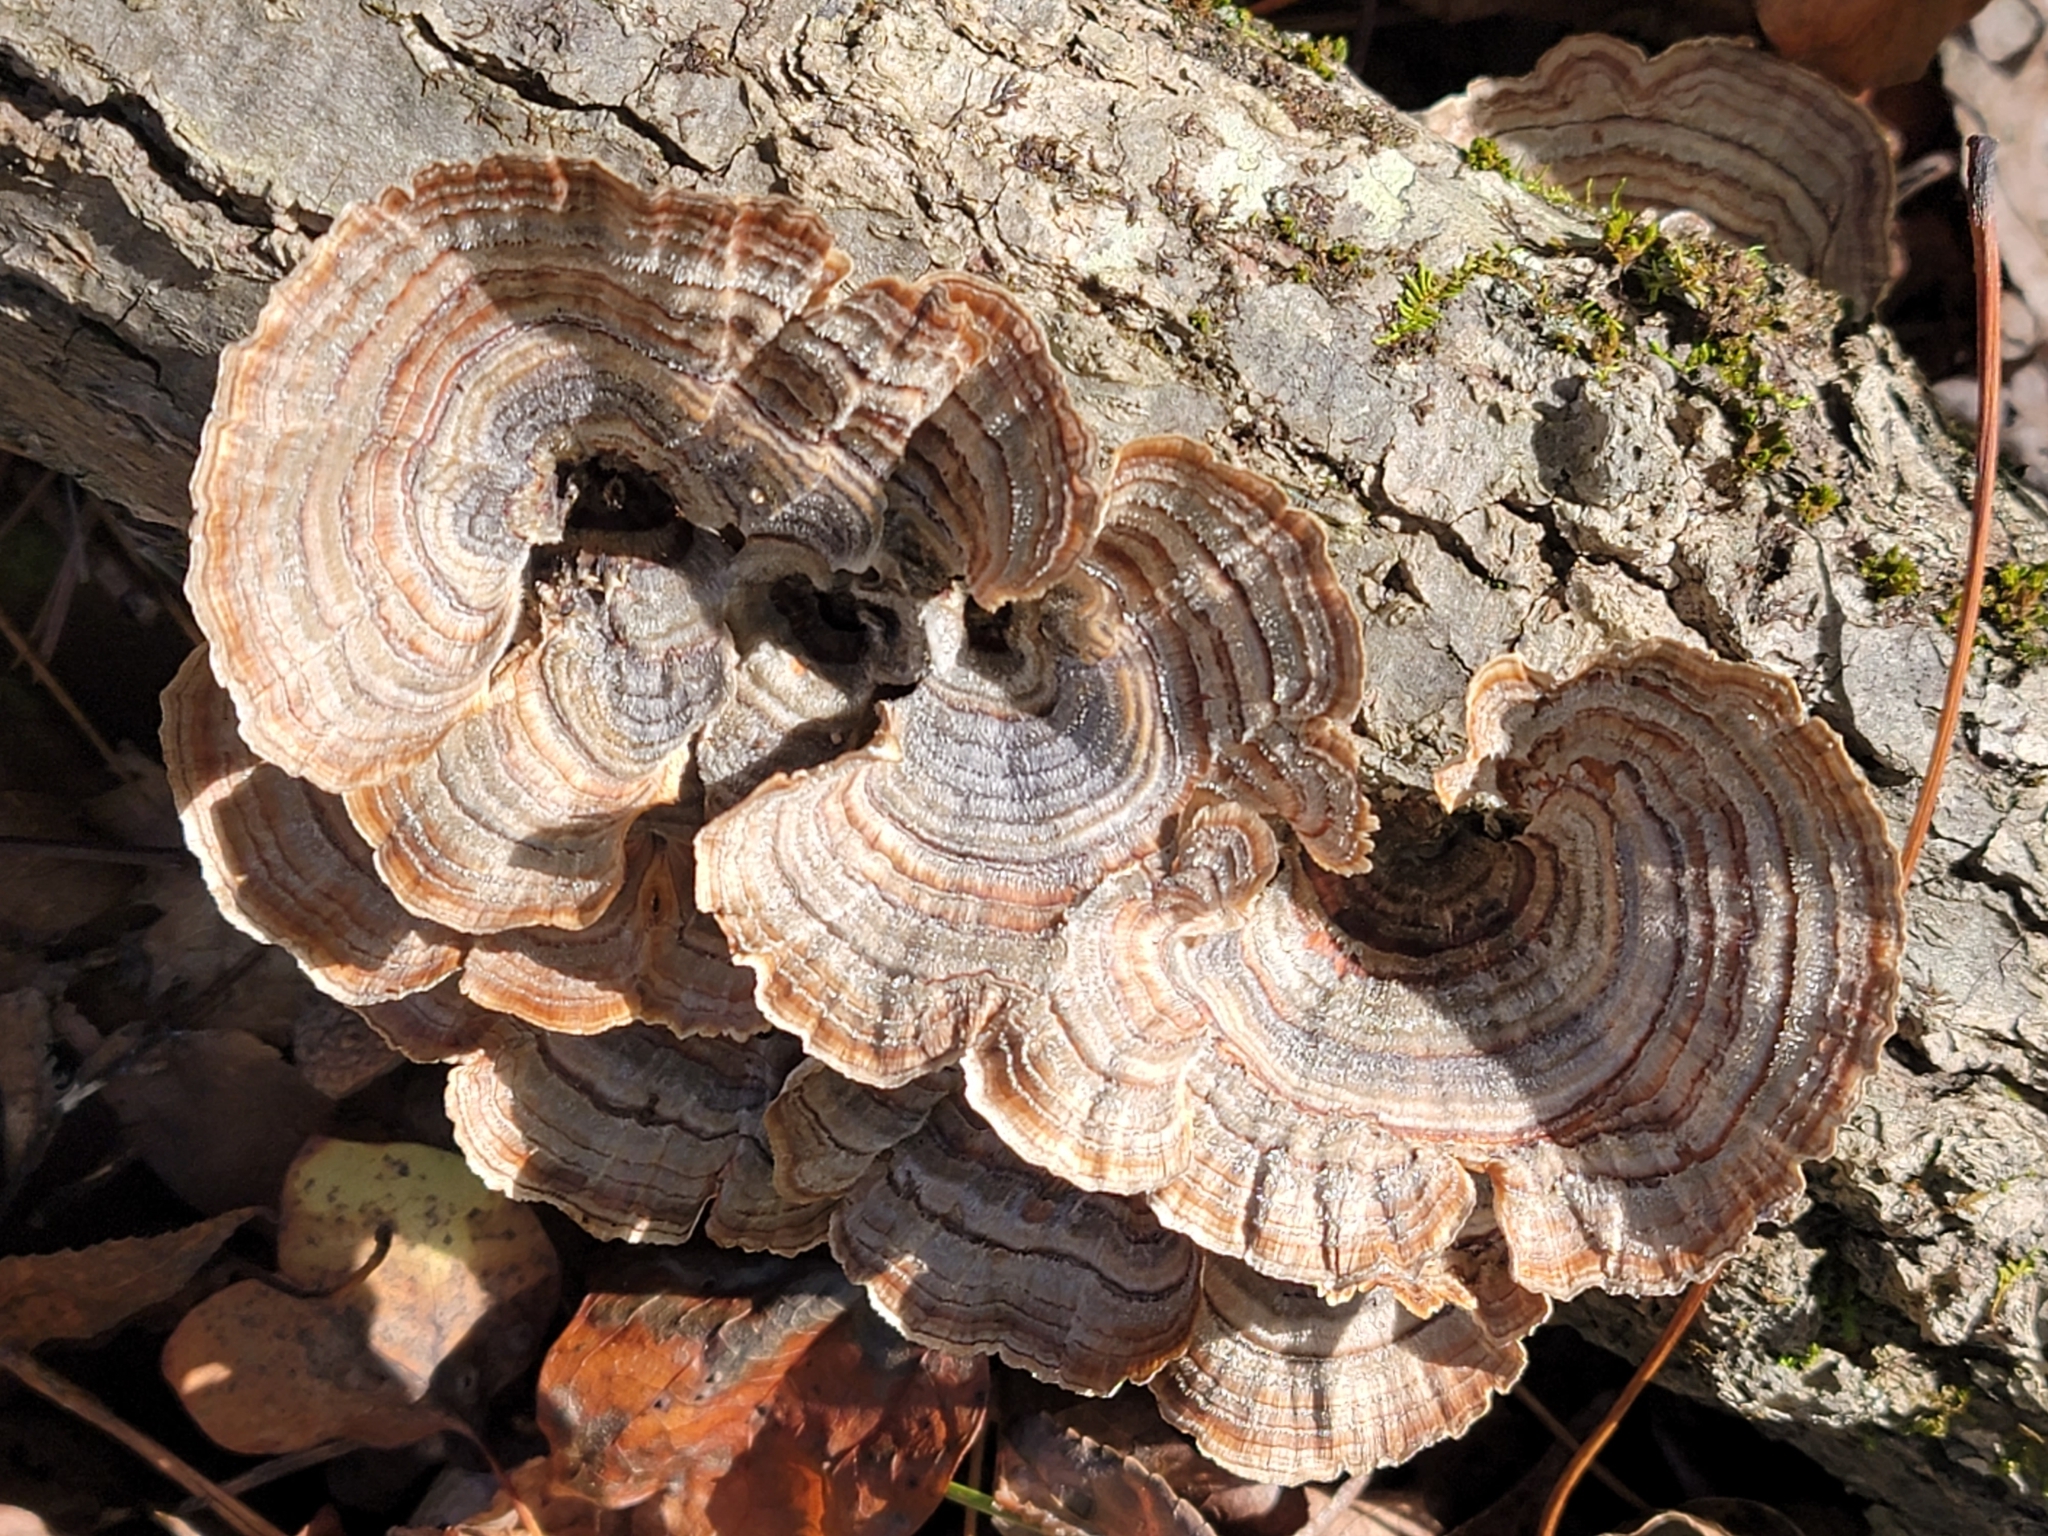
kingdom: Fungi
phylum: Basidiomycota
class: Agaricomycetes
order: Polyporales
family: Polyporaceae
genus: Trametes
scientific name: Trametes versicolor
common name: Turkeytail
